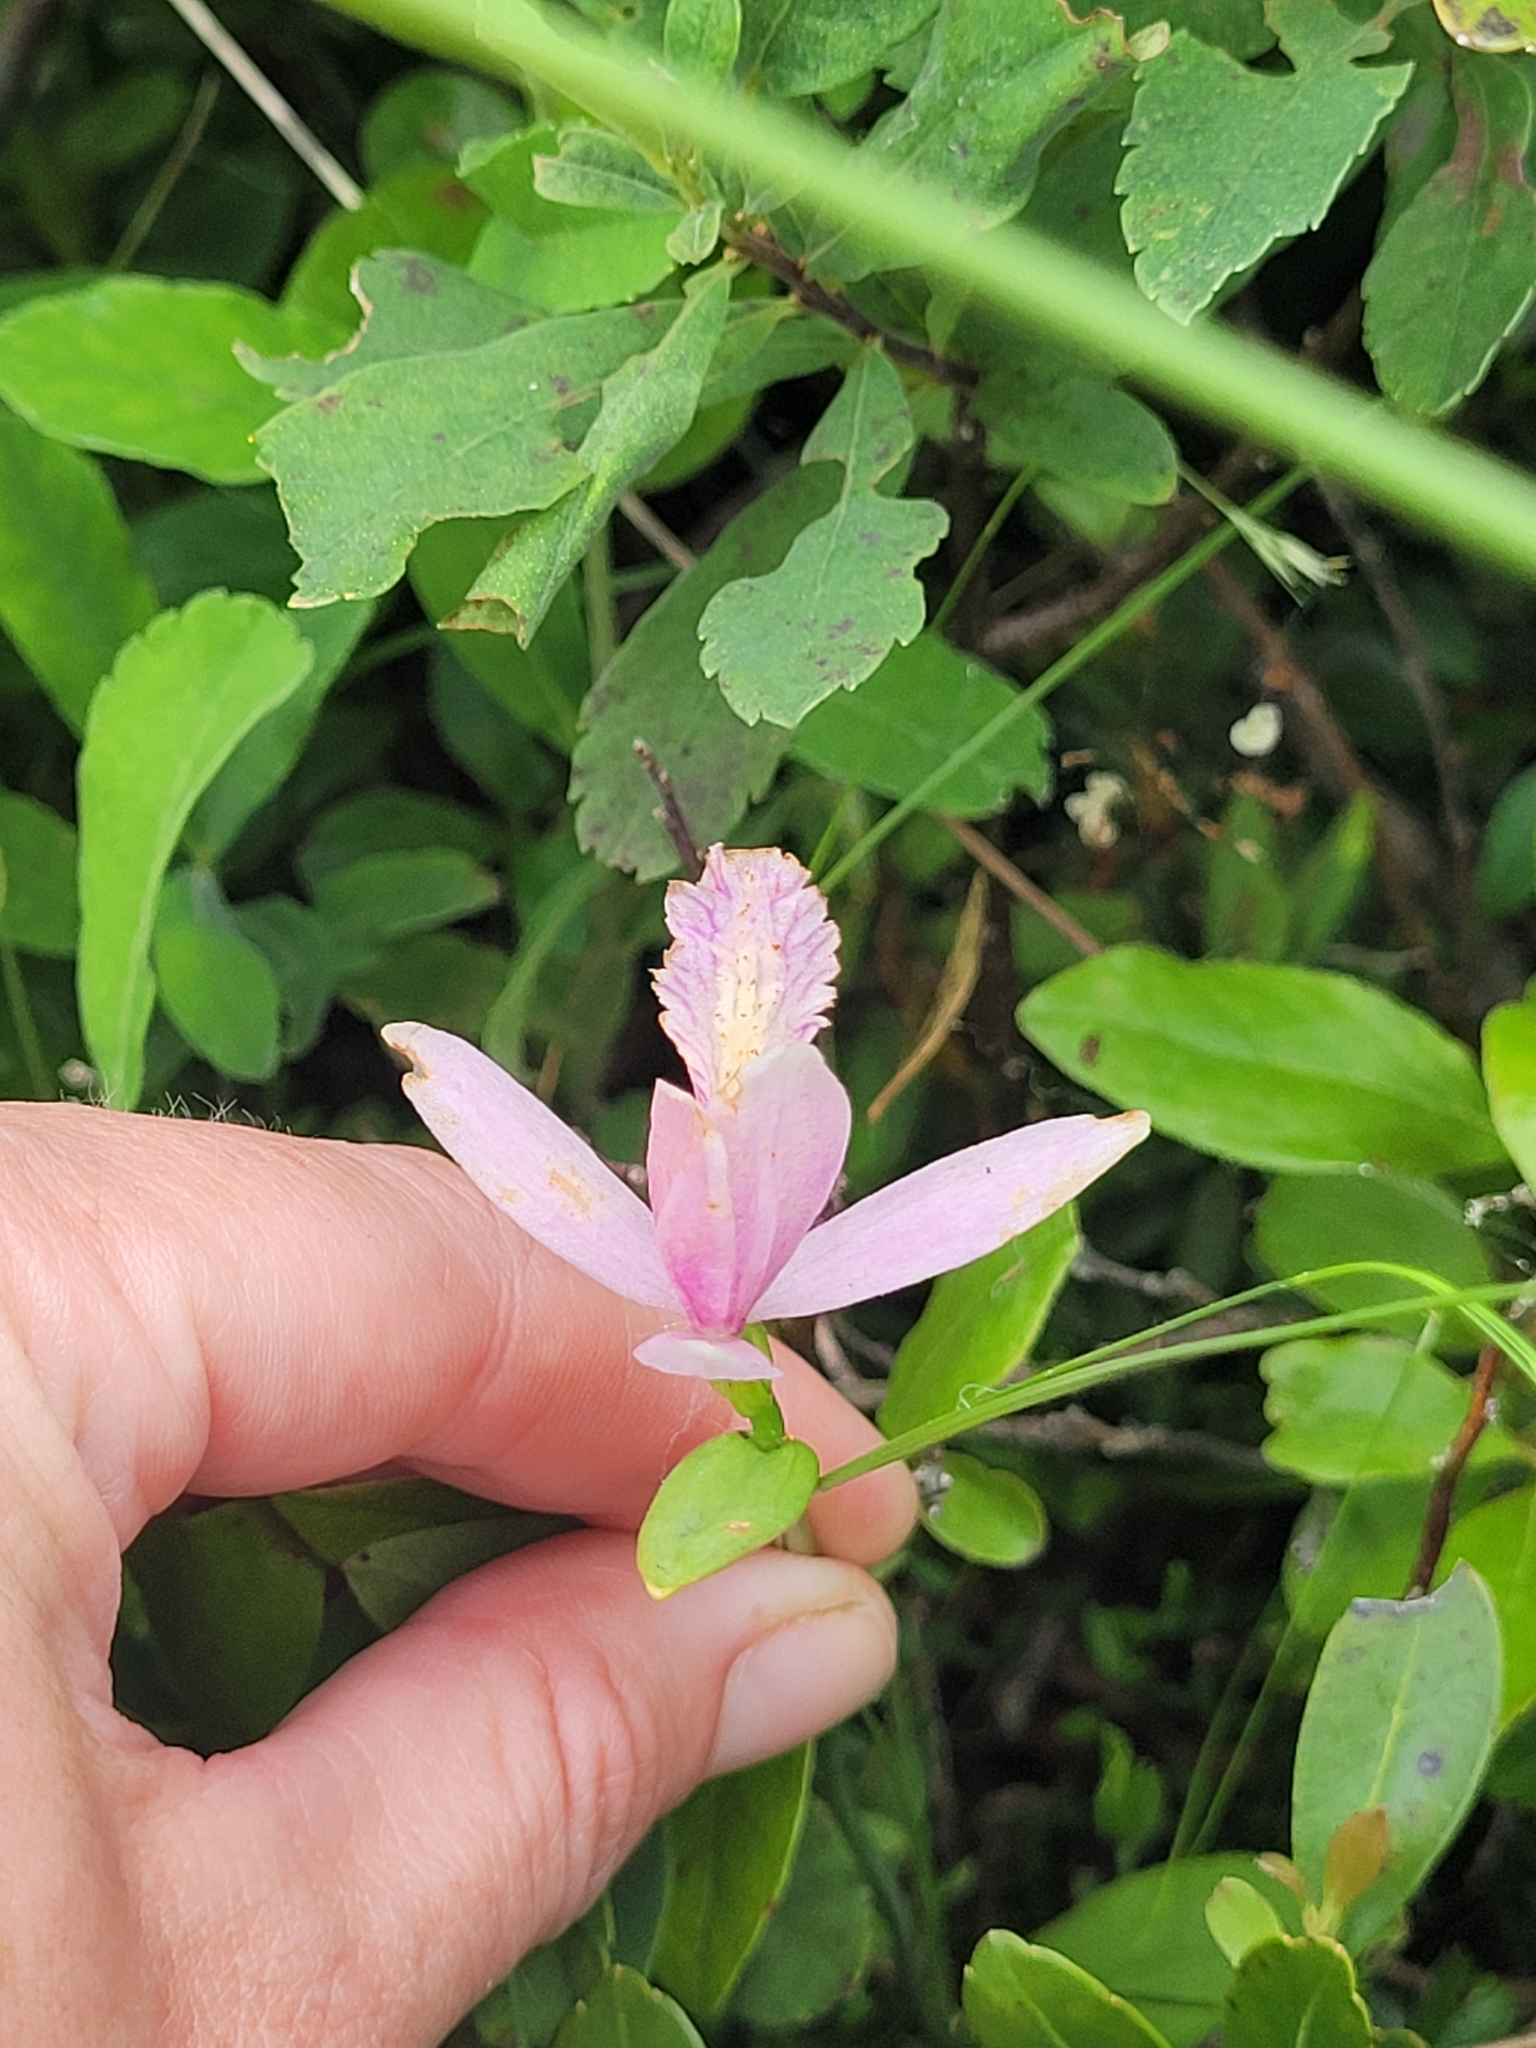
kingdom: Plantae
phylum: Tracheophyta
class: Liliopsida
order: Asparagales
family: Orchidaceae
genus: Pogonia
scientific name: Pogonia ophioglossoides
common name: Rose pogonia
